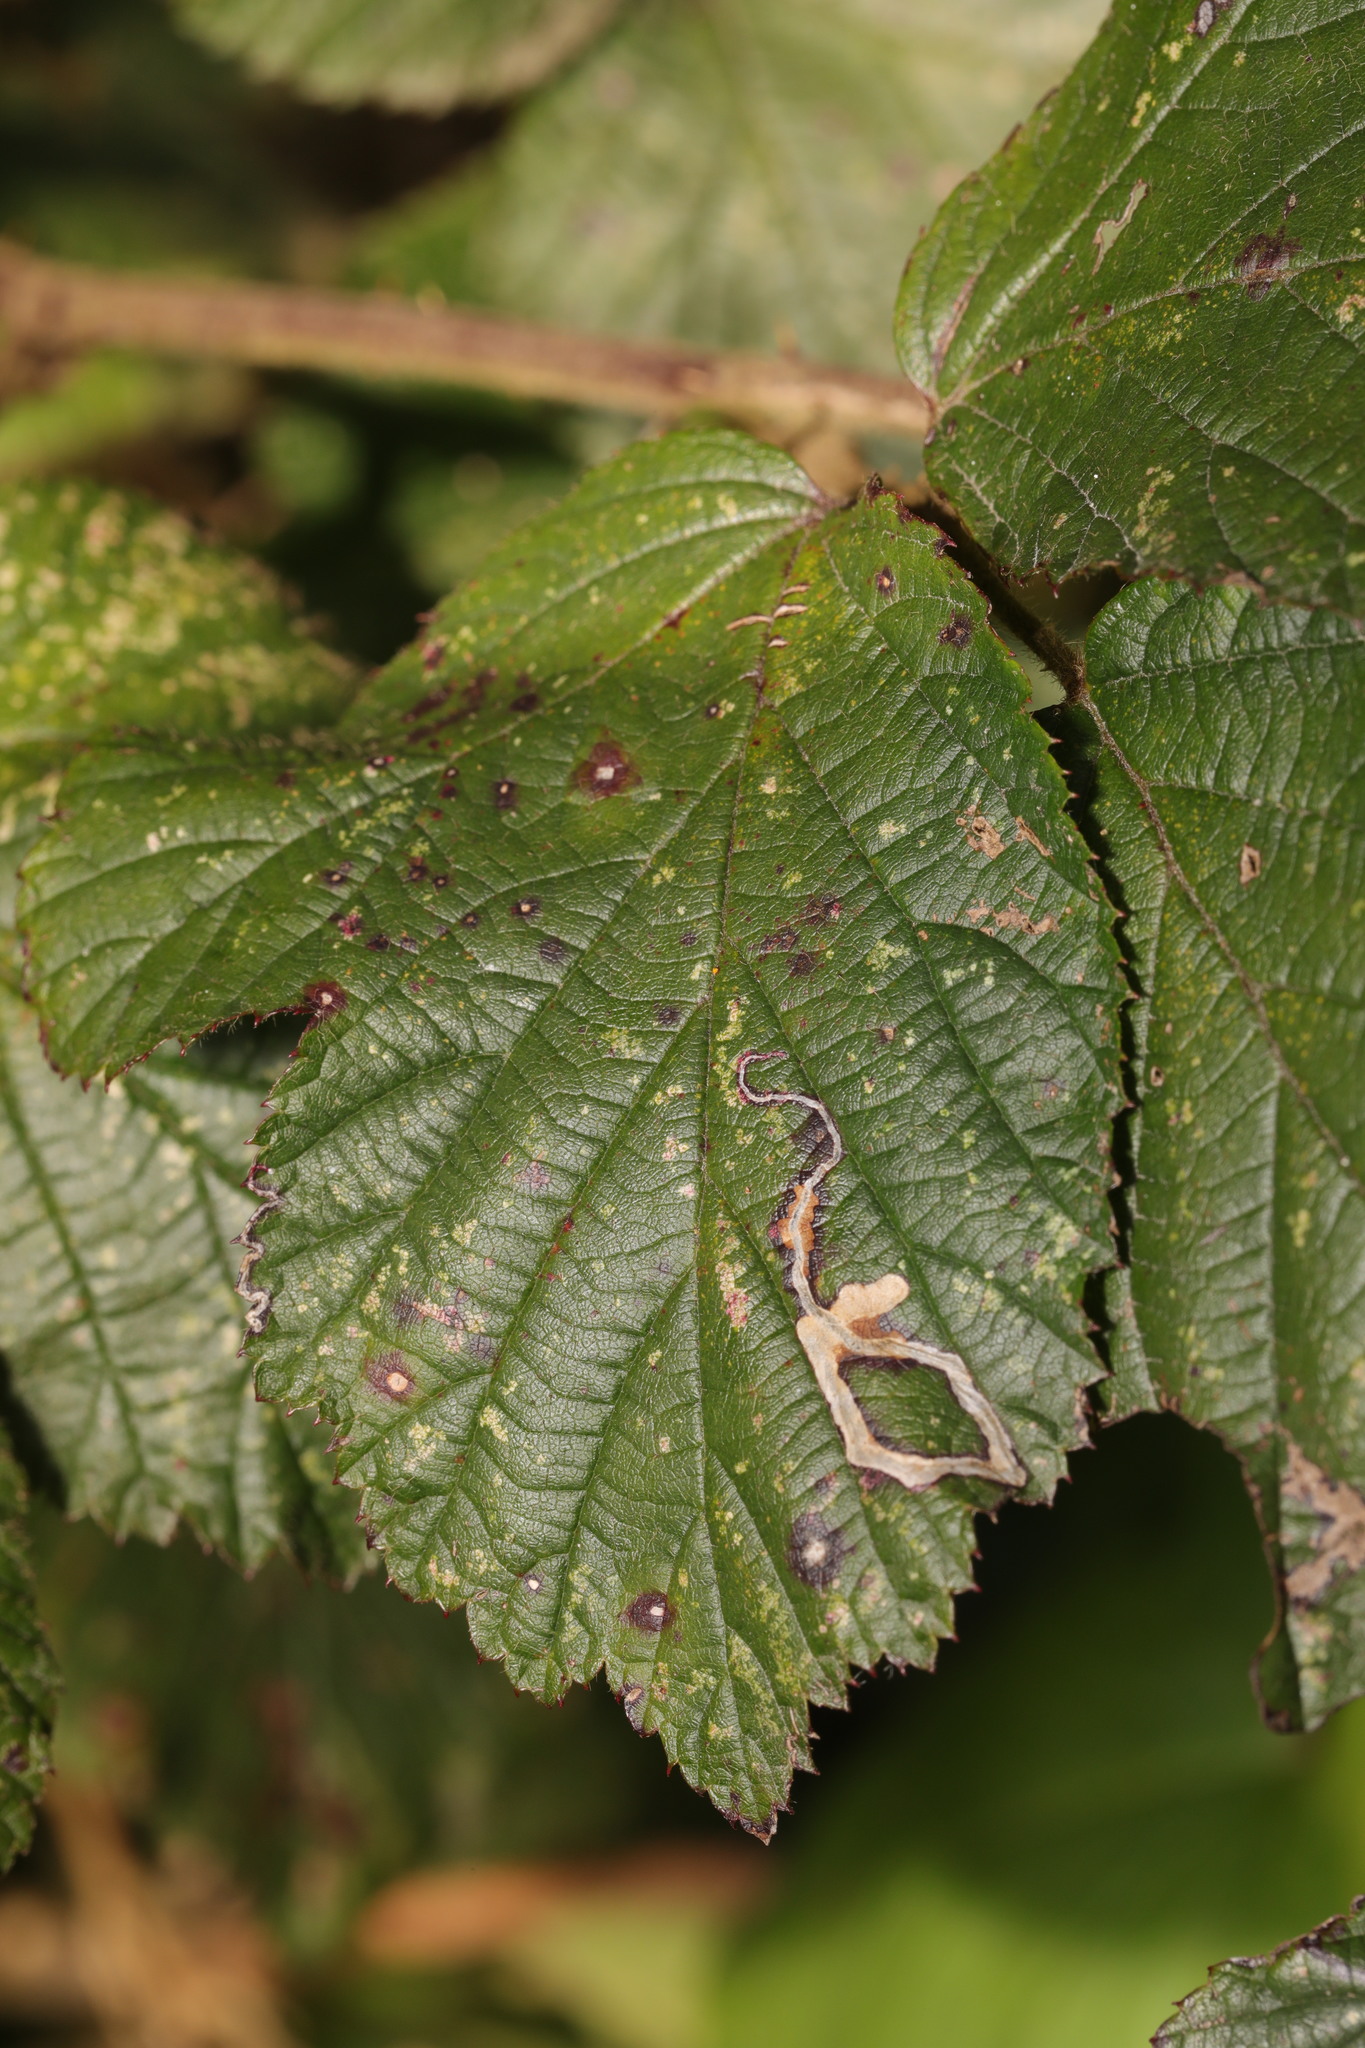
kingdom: Animalia
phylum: Arthropoda
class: Insecta
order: Lepidoptera
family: Nepticulidae
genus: Stigmella
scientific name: Stigmella aurella
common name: Golden pigmy
